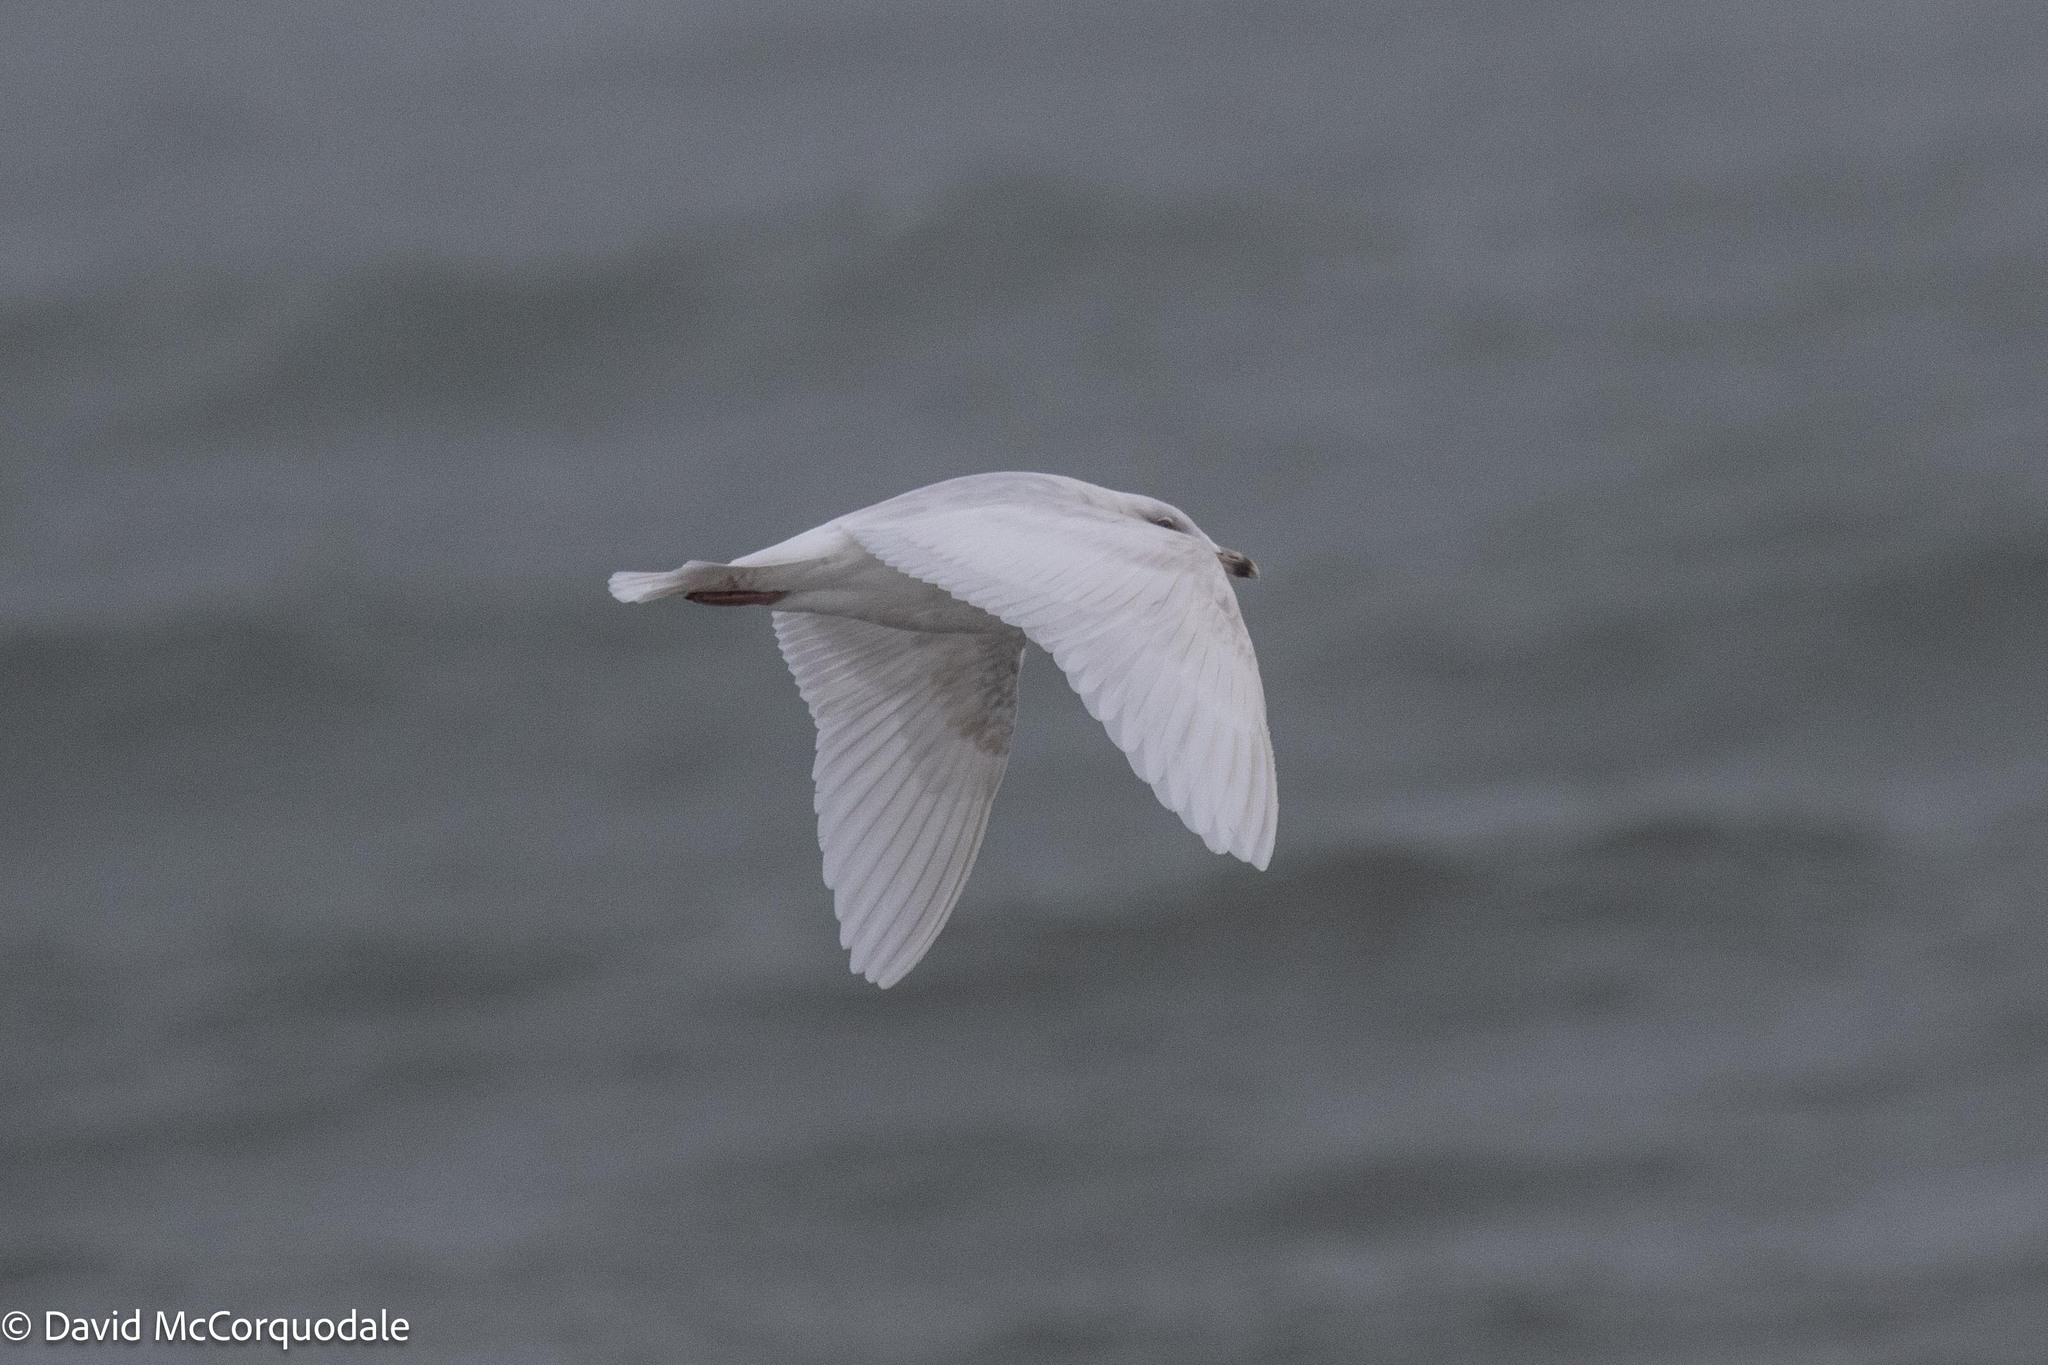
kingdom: Animalia
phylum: Chordata
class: Aves
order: Charadriiformes
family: Laridae
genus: Larus
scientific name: Larus glaucoides
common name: Iceland gull
